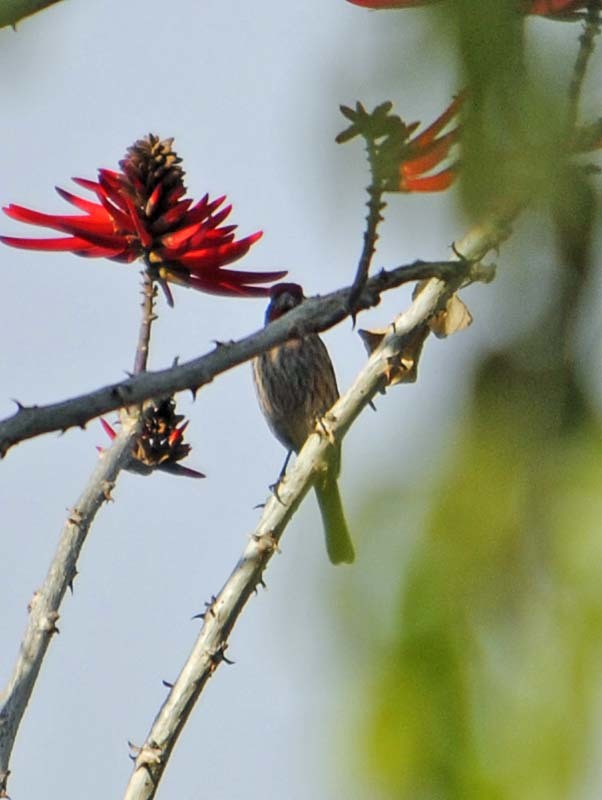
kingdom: Animalia
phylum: Chordata
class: Aves
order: Passeriformes
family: Fringillidae
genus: Haemorhous
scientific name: Haemorhous mexicanus
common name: House finch
